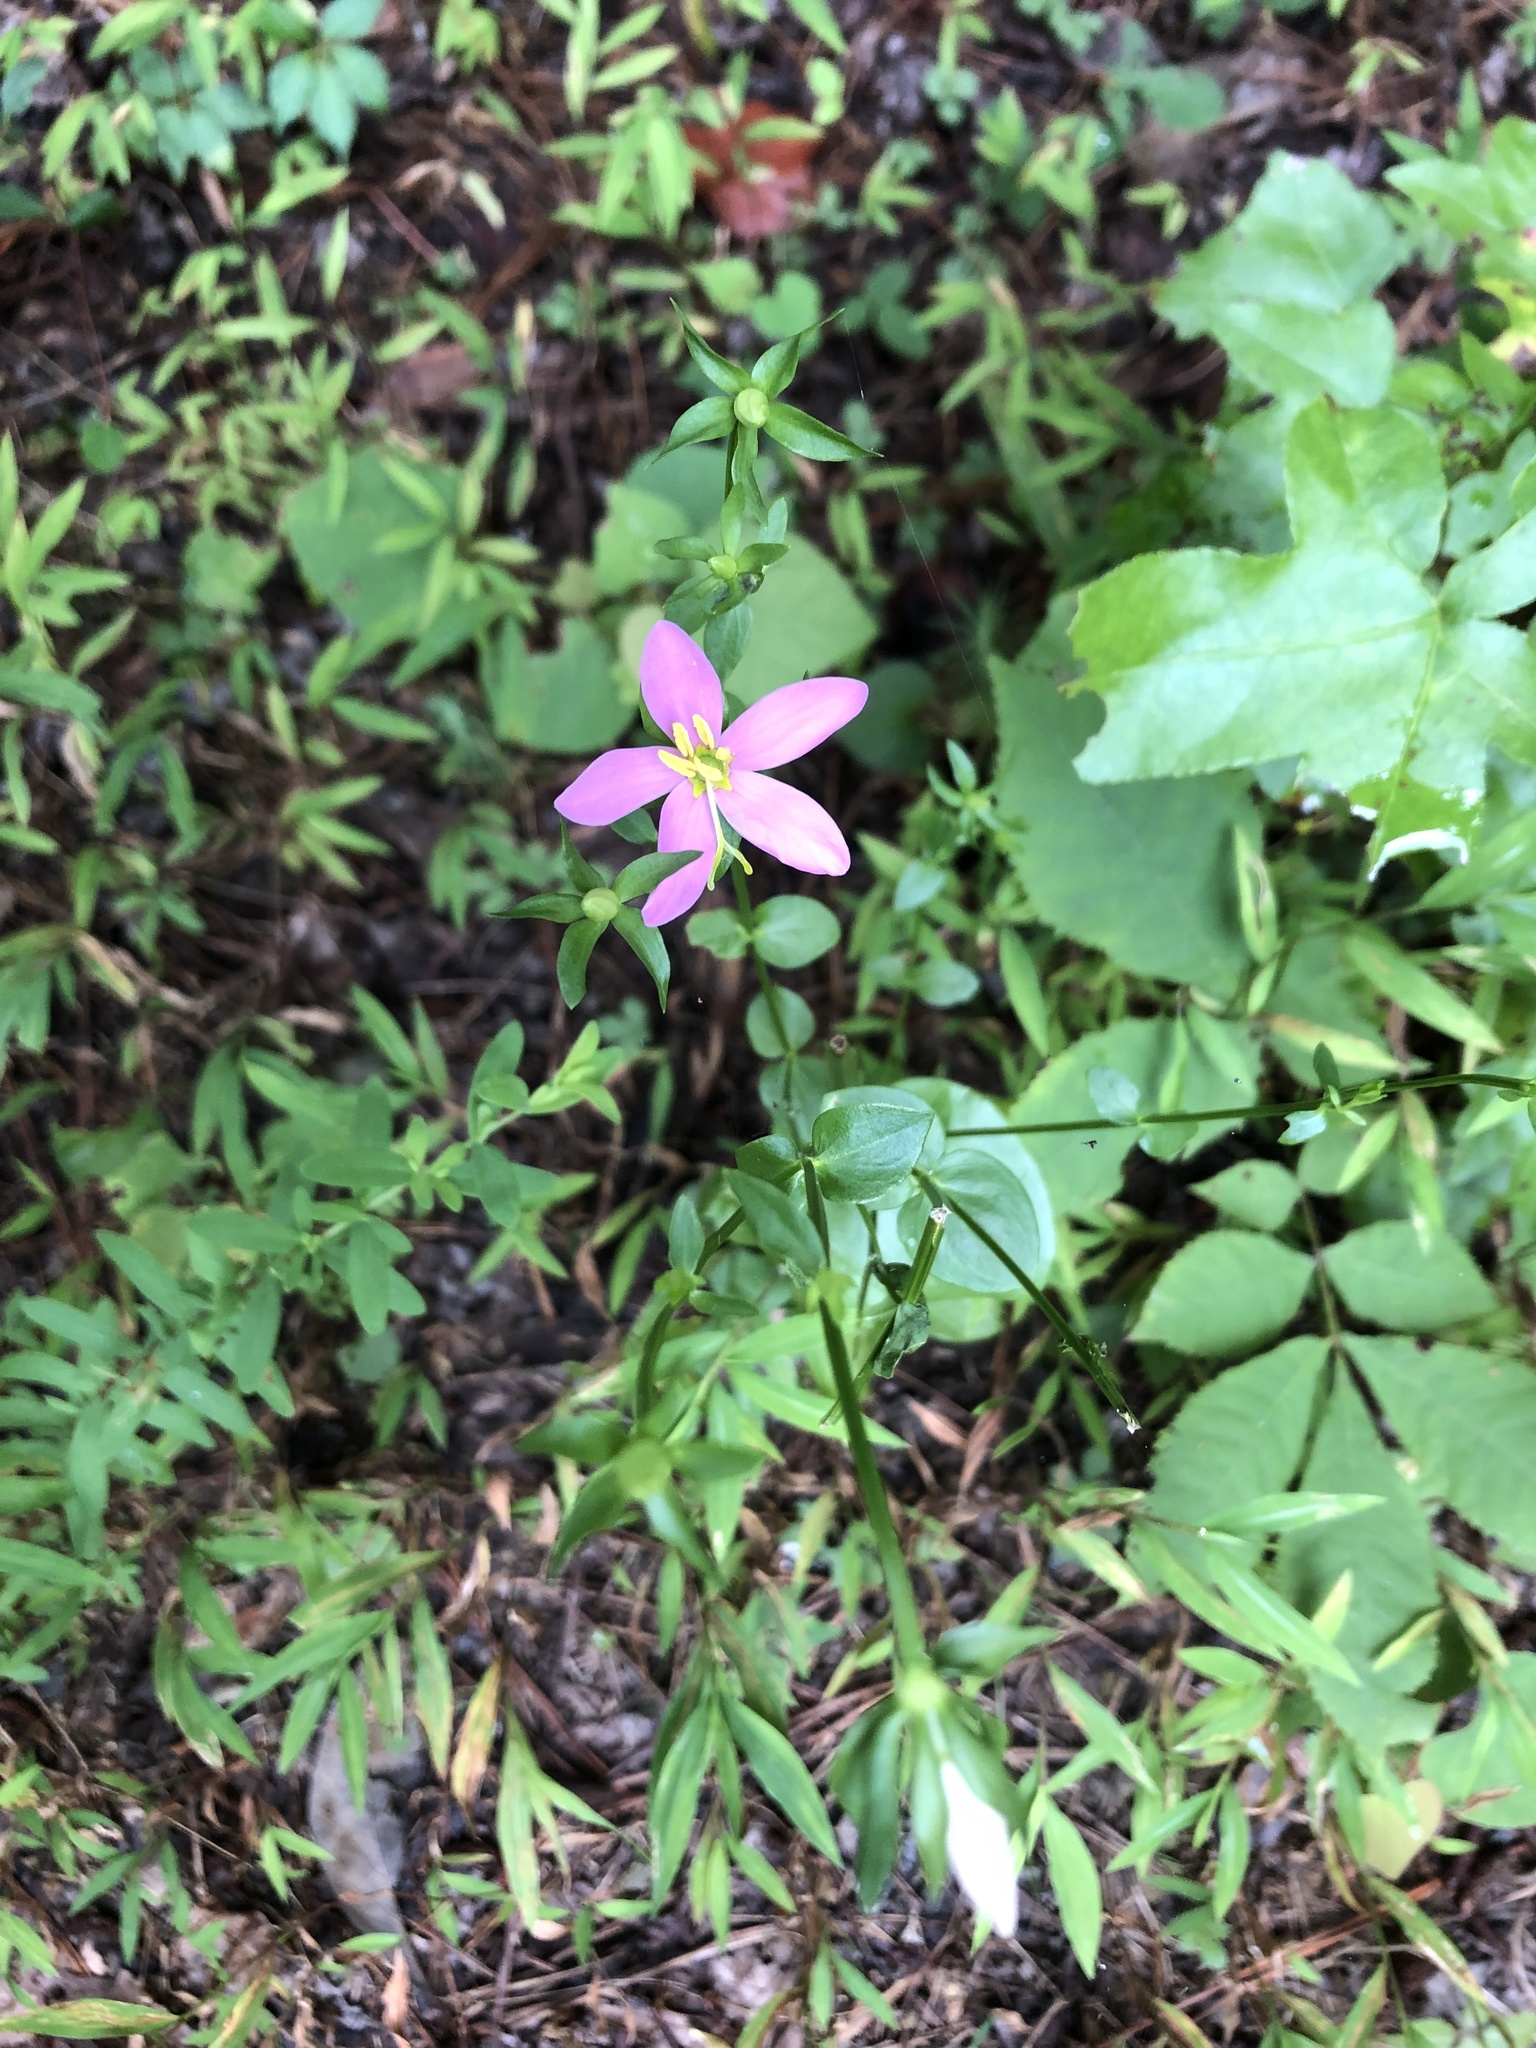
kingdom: Plantae
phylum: Tracheophyta
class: Magnoliopsida
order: Gentianales
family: Gentianaceae
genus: Sabatia
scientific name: Sabatia angularis
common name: Rose-pink
